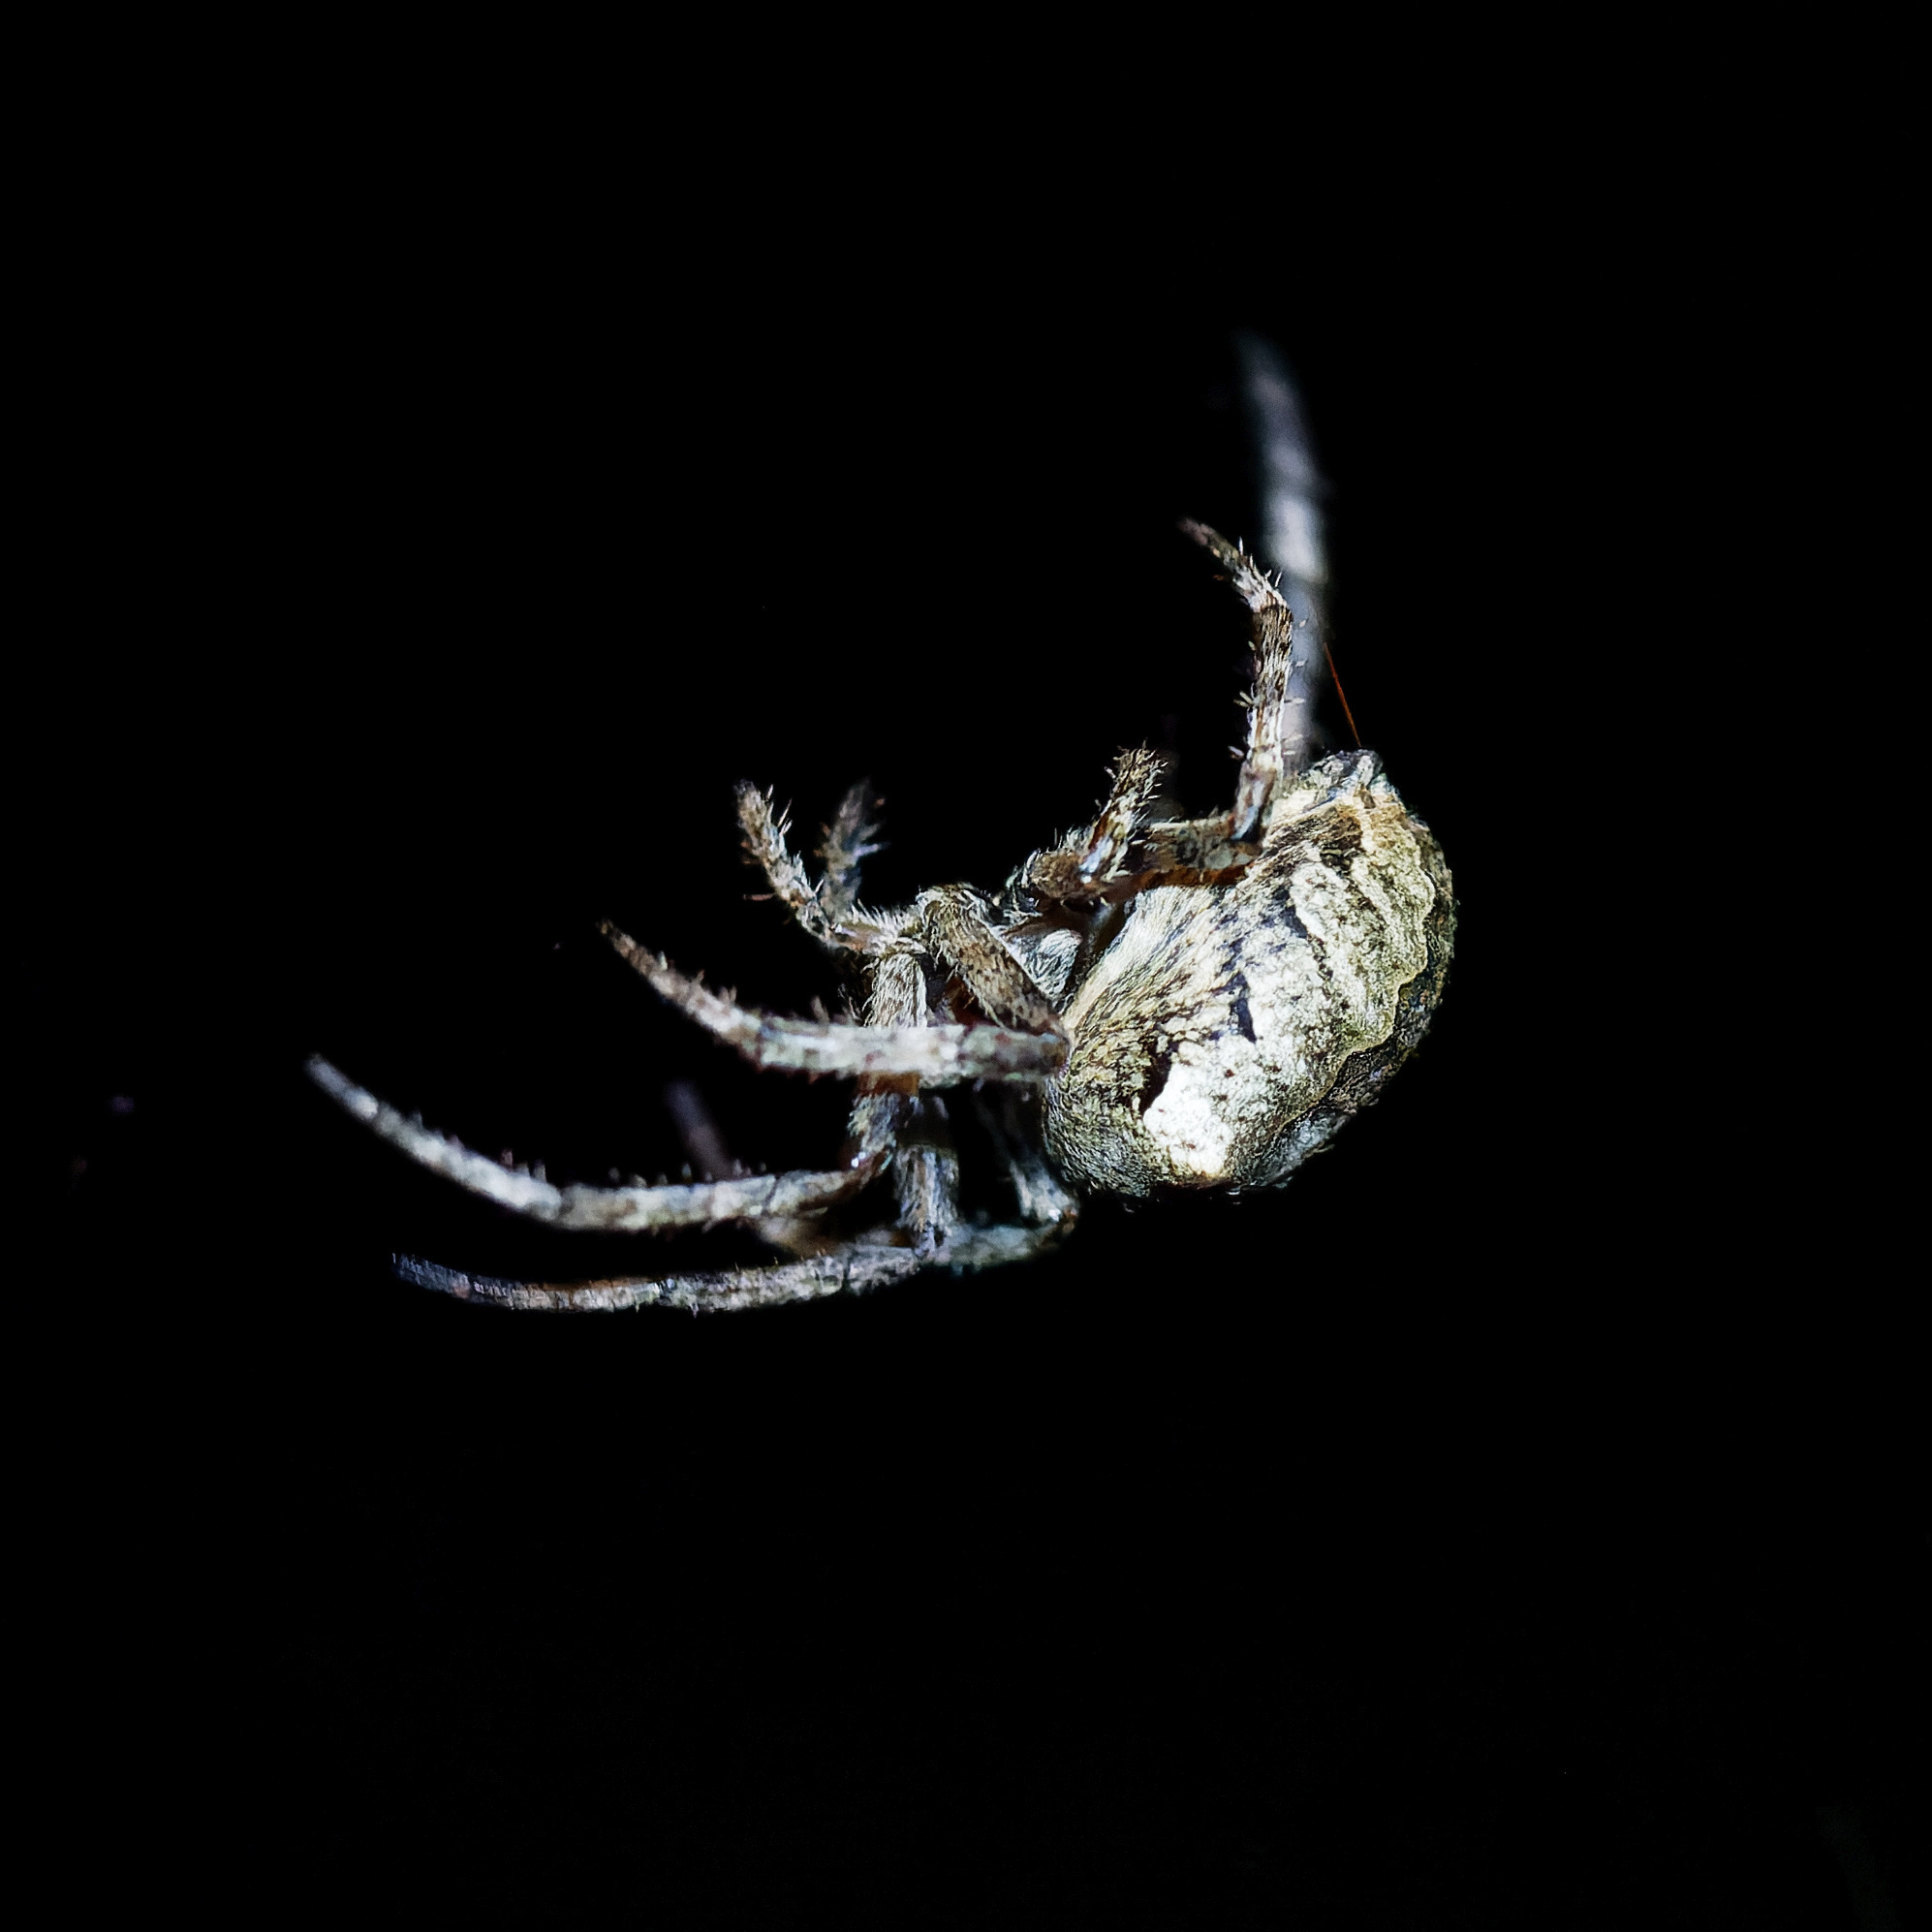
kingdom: Animalia
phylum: Arthropoda
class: Arachnida
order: Araneae
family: Araneidae
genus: Araneus
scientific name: Araneus angulatus
